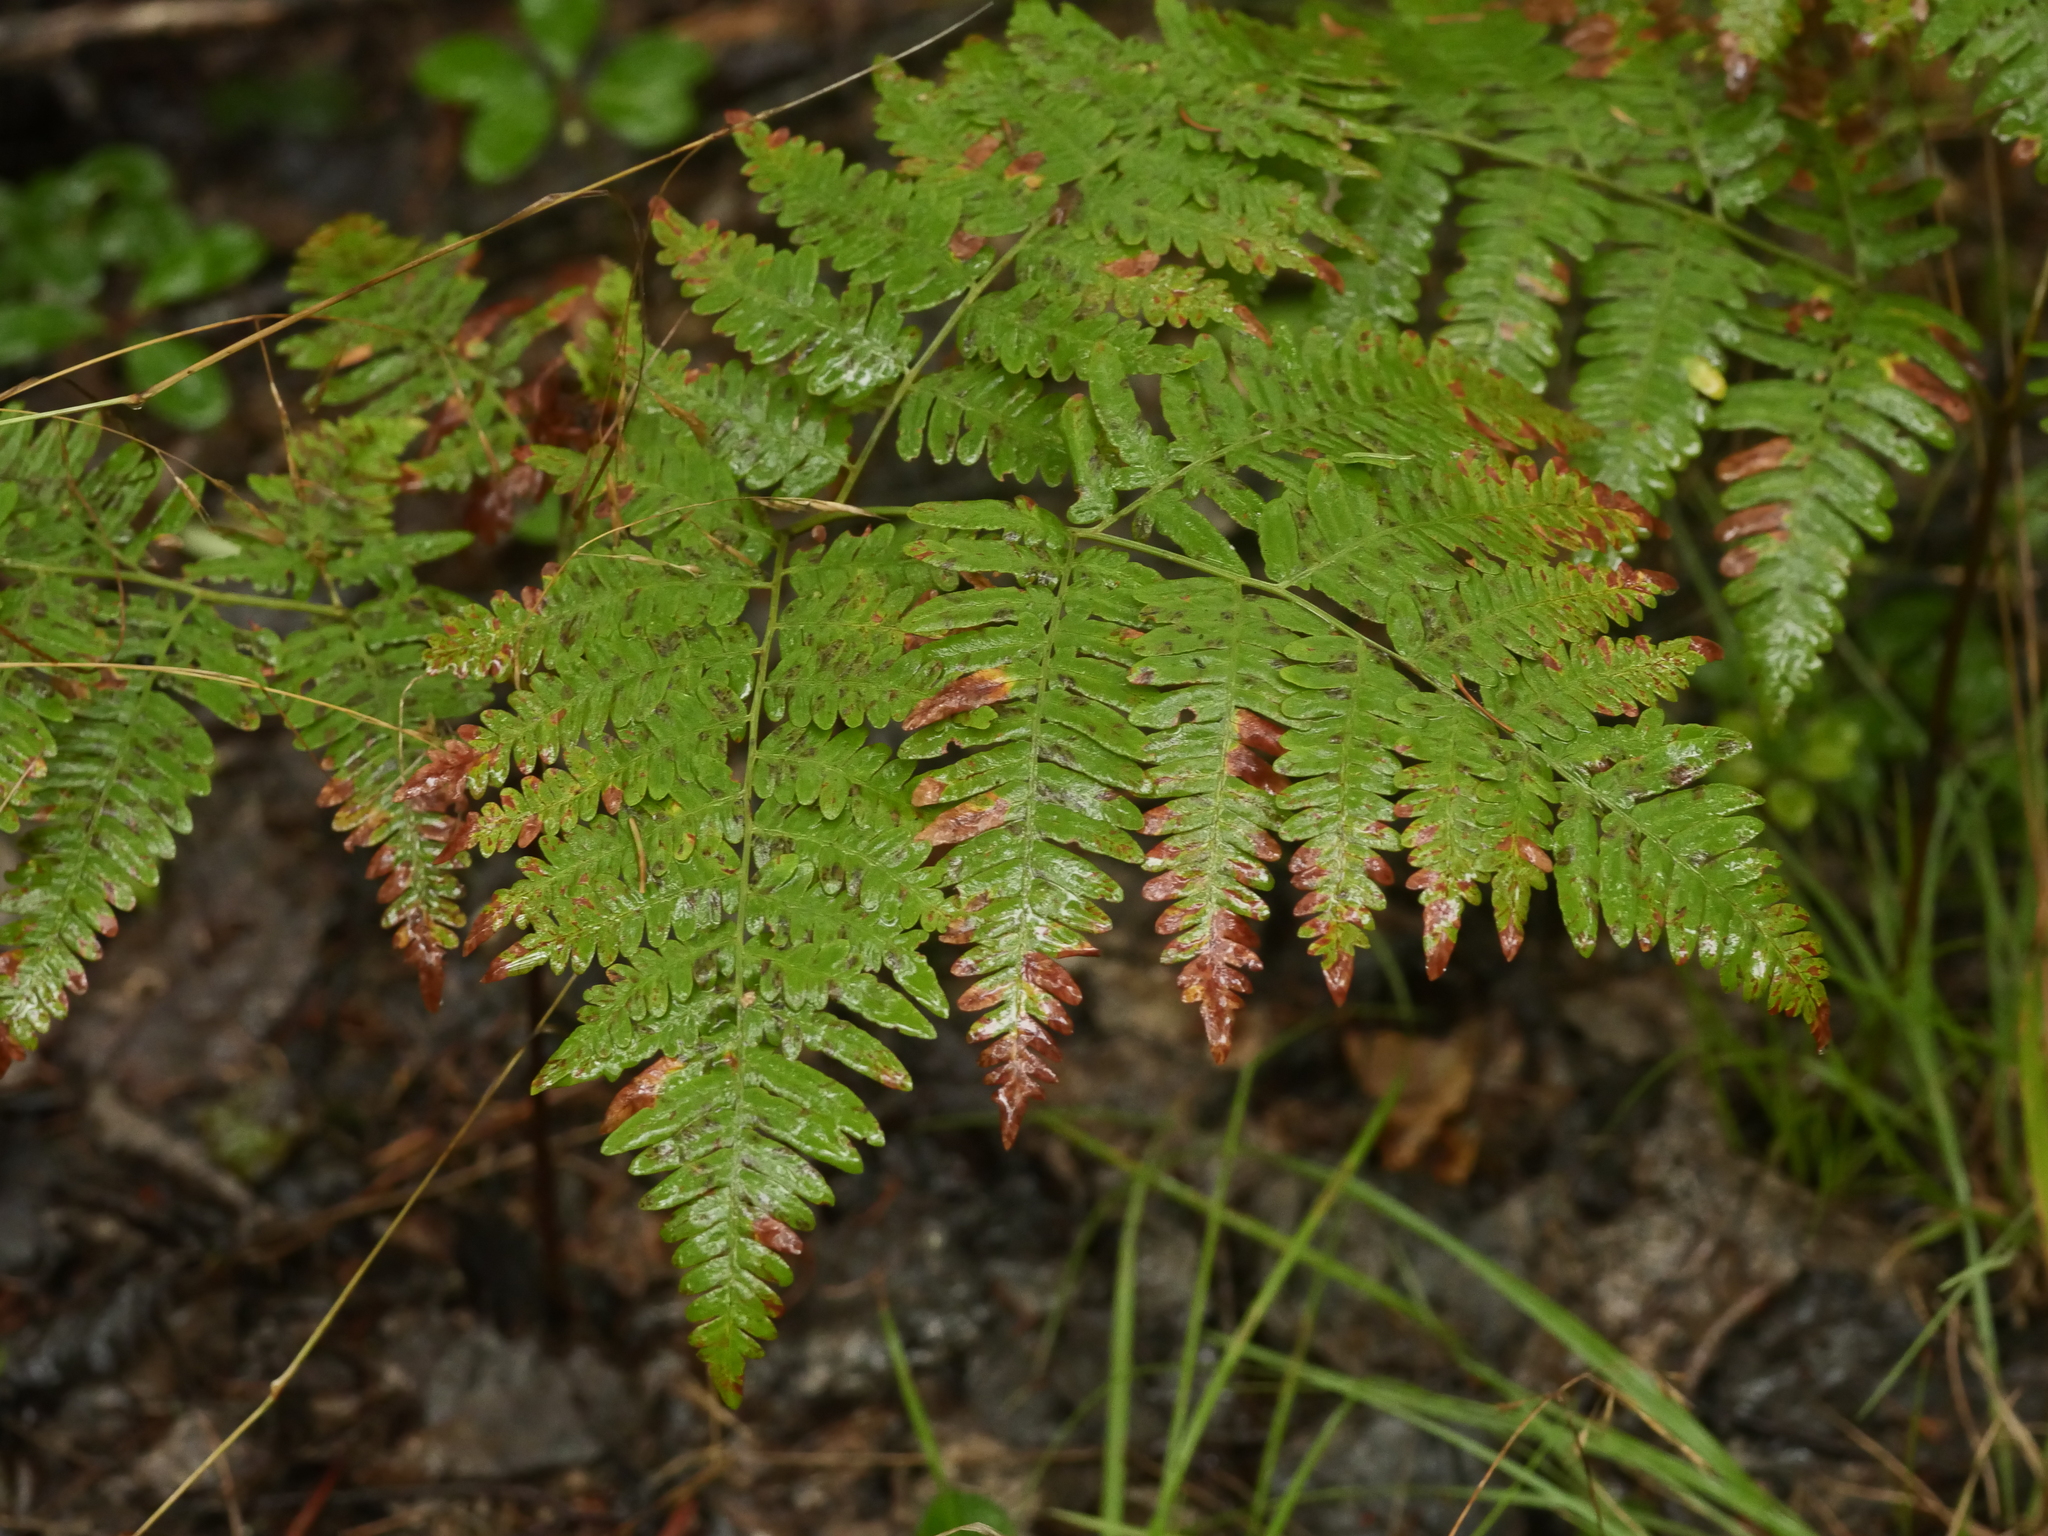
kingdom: Plantae
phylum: Tracheophyta
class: Polypodiopsida
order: Polypodiales
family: Dennstaedtiaceae
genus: Pteridium
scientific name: Pteridium aquilinum
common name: Bracken
